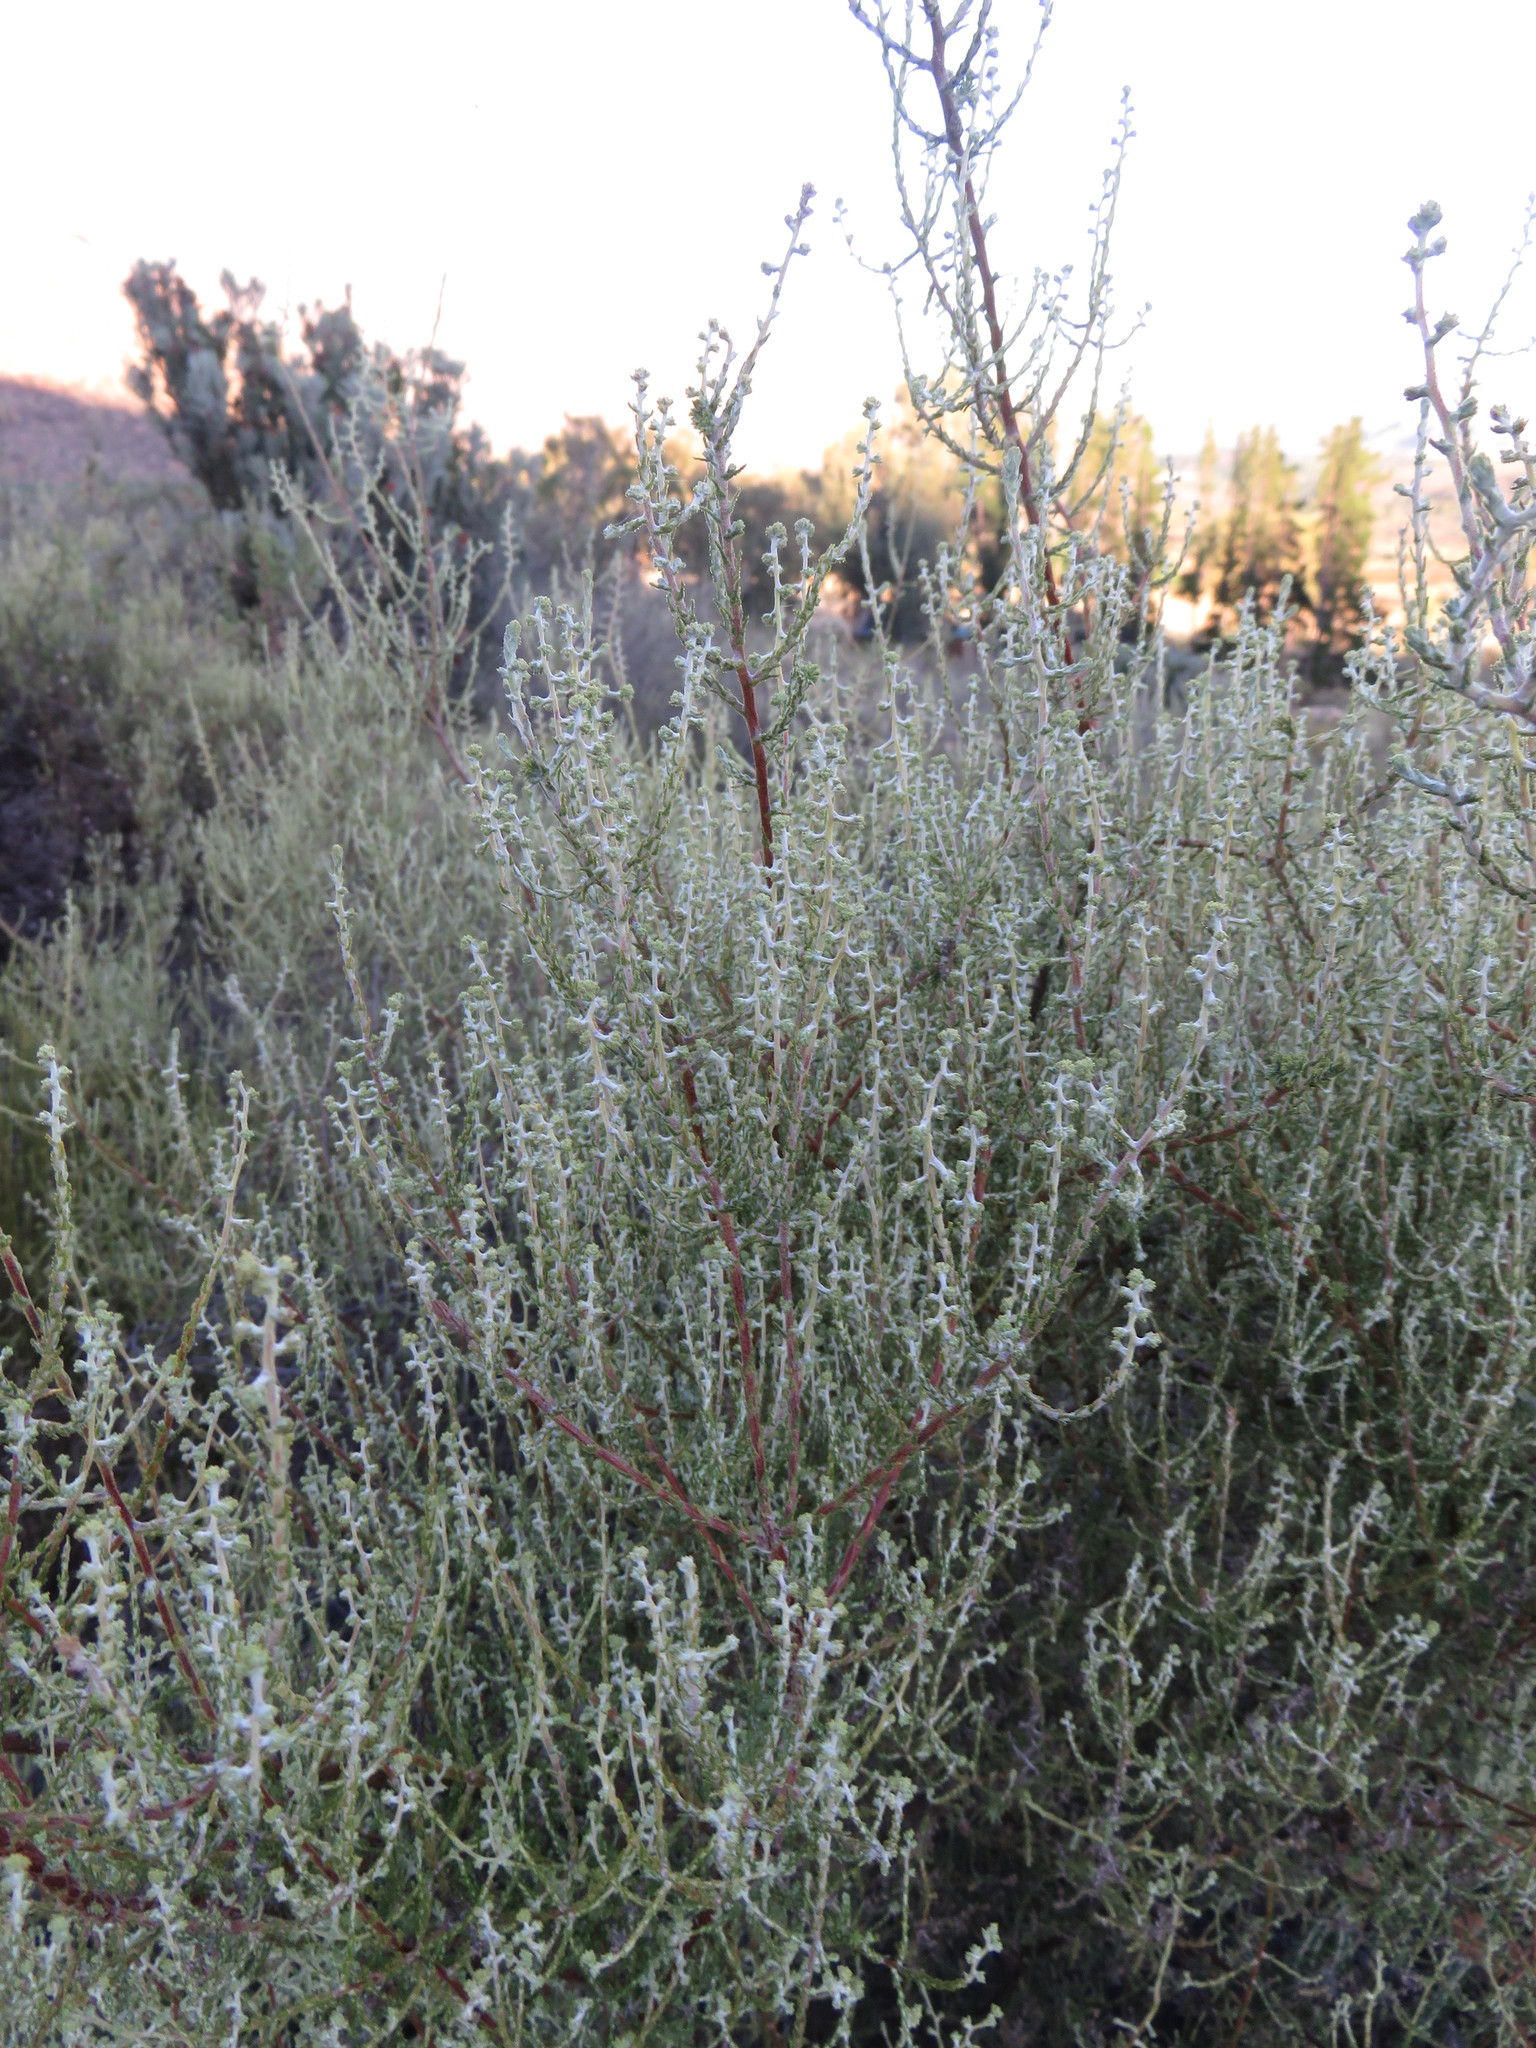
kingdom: Plantae
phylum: Tracheophyta
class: Magnoliopsida
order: Asterales
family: Asteraceae
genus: Seriphium
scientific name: Seriphium plumosum
